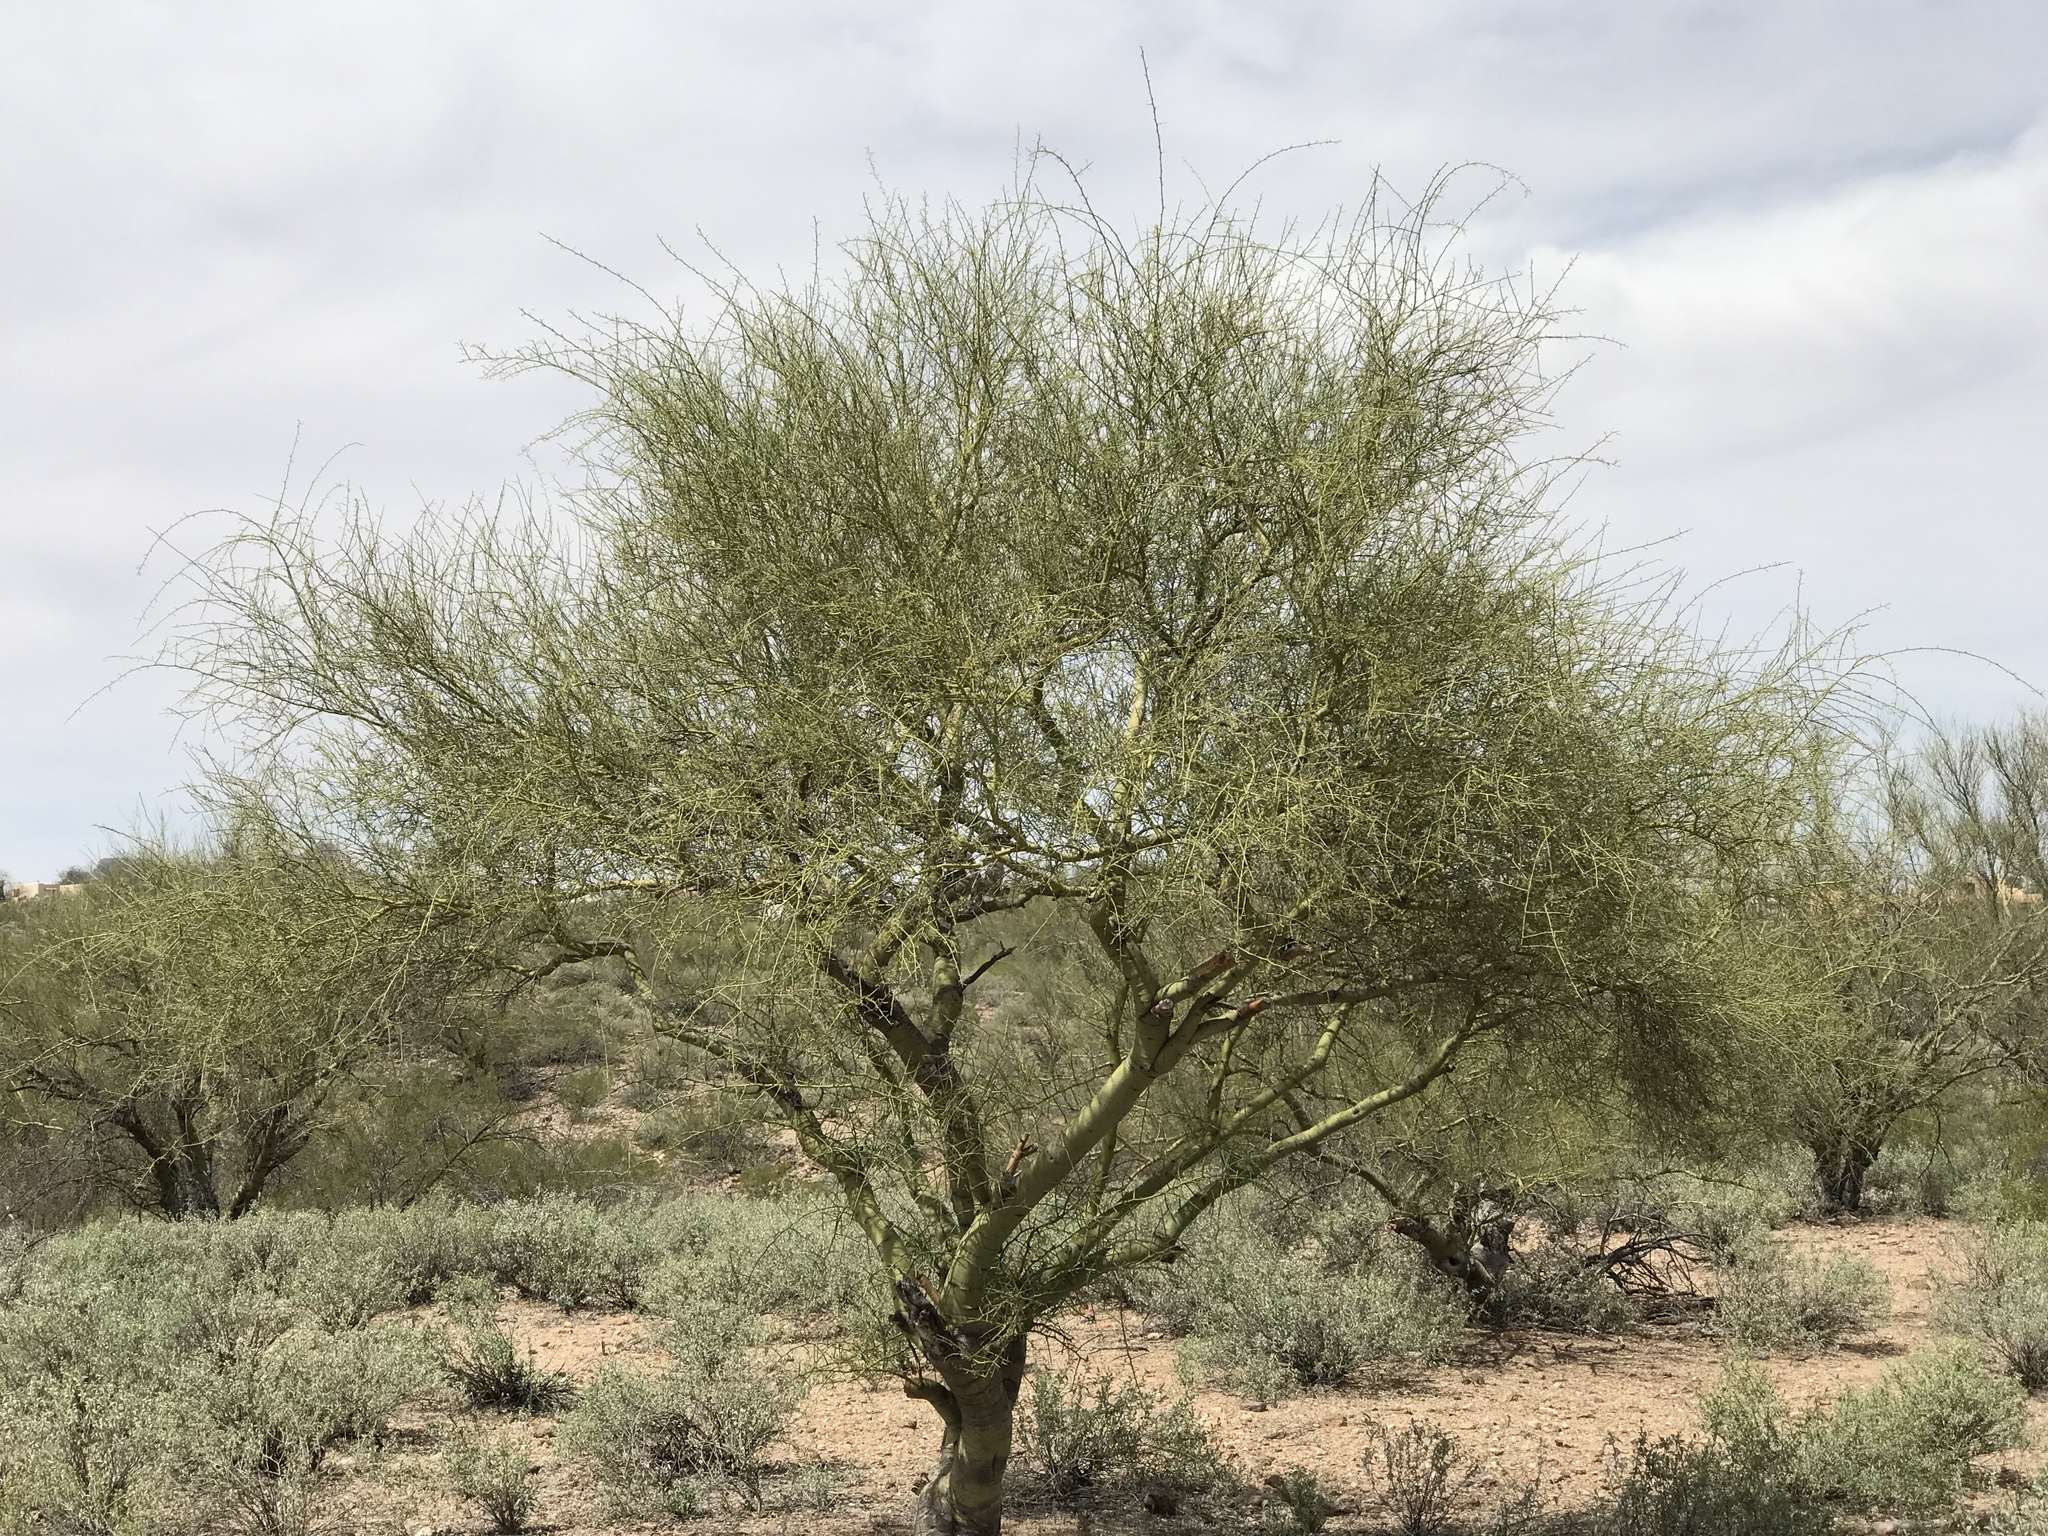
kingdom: Plantae
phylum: Tracheophyta
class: Magnoliopsida
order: Fabales
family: Fabaceae
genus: Parkinsonia
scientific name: Parkinsonia microphylla
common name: Yellow paloverde
